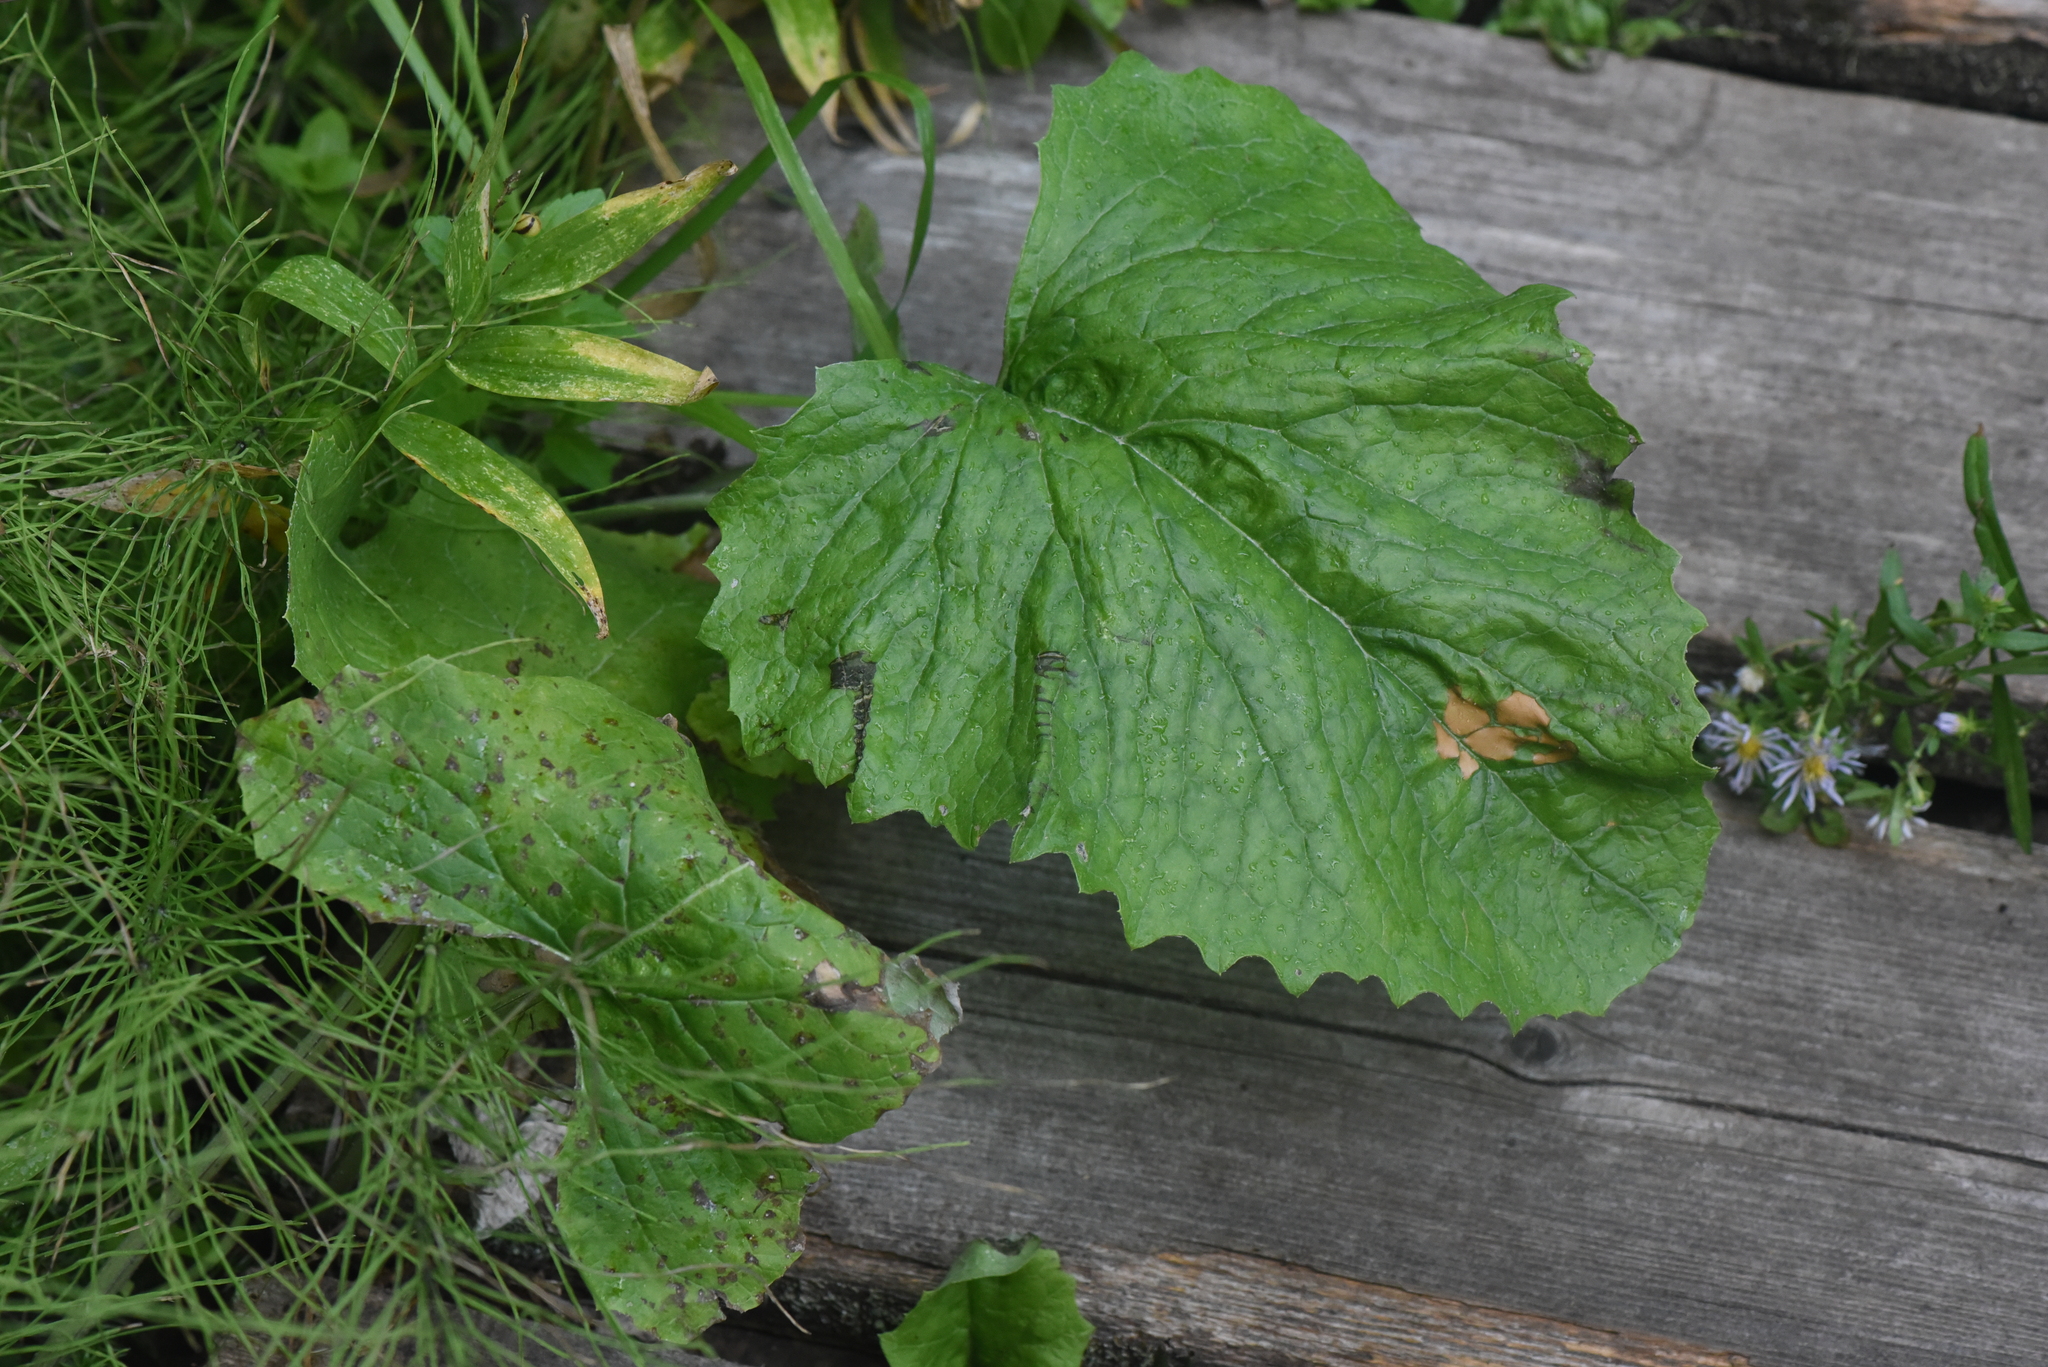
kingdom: Plantae
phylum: Tracheophyta
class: Magnoliopsida
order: Asterales
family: Asteraceae
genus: Petasites
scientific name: Petasites frigidus
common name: Arctic butterbur
